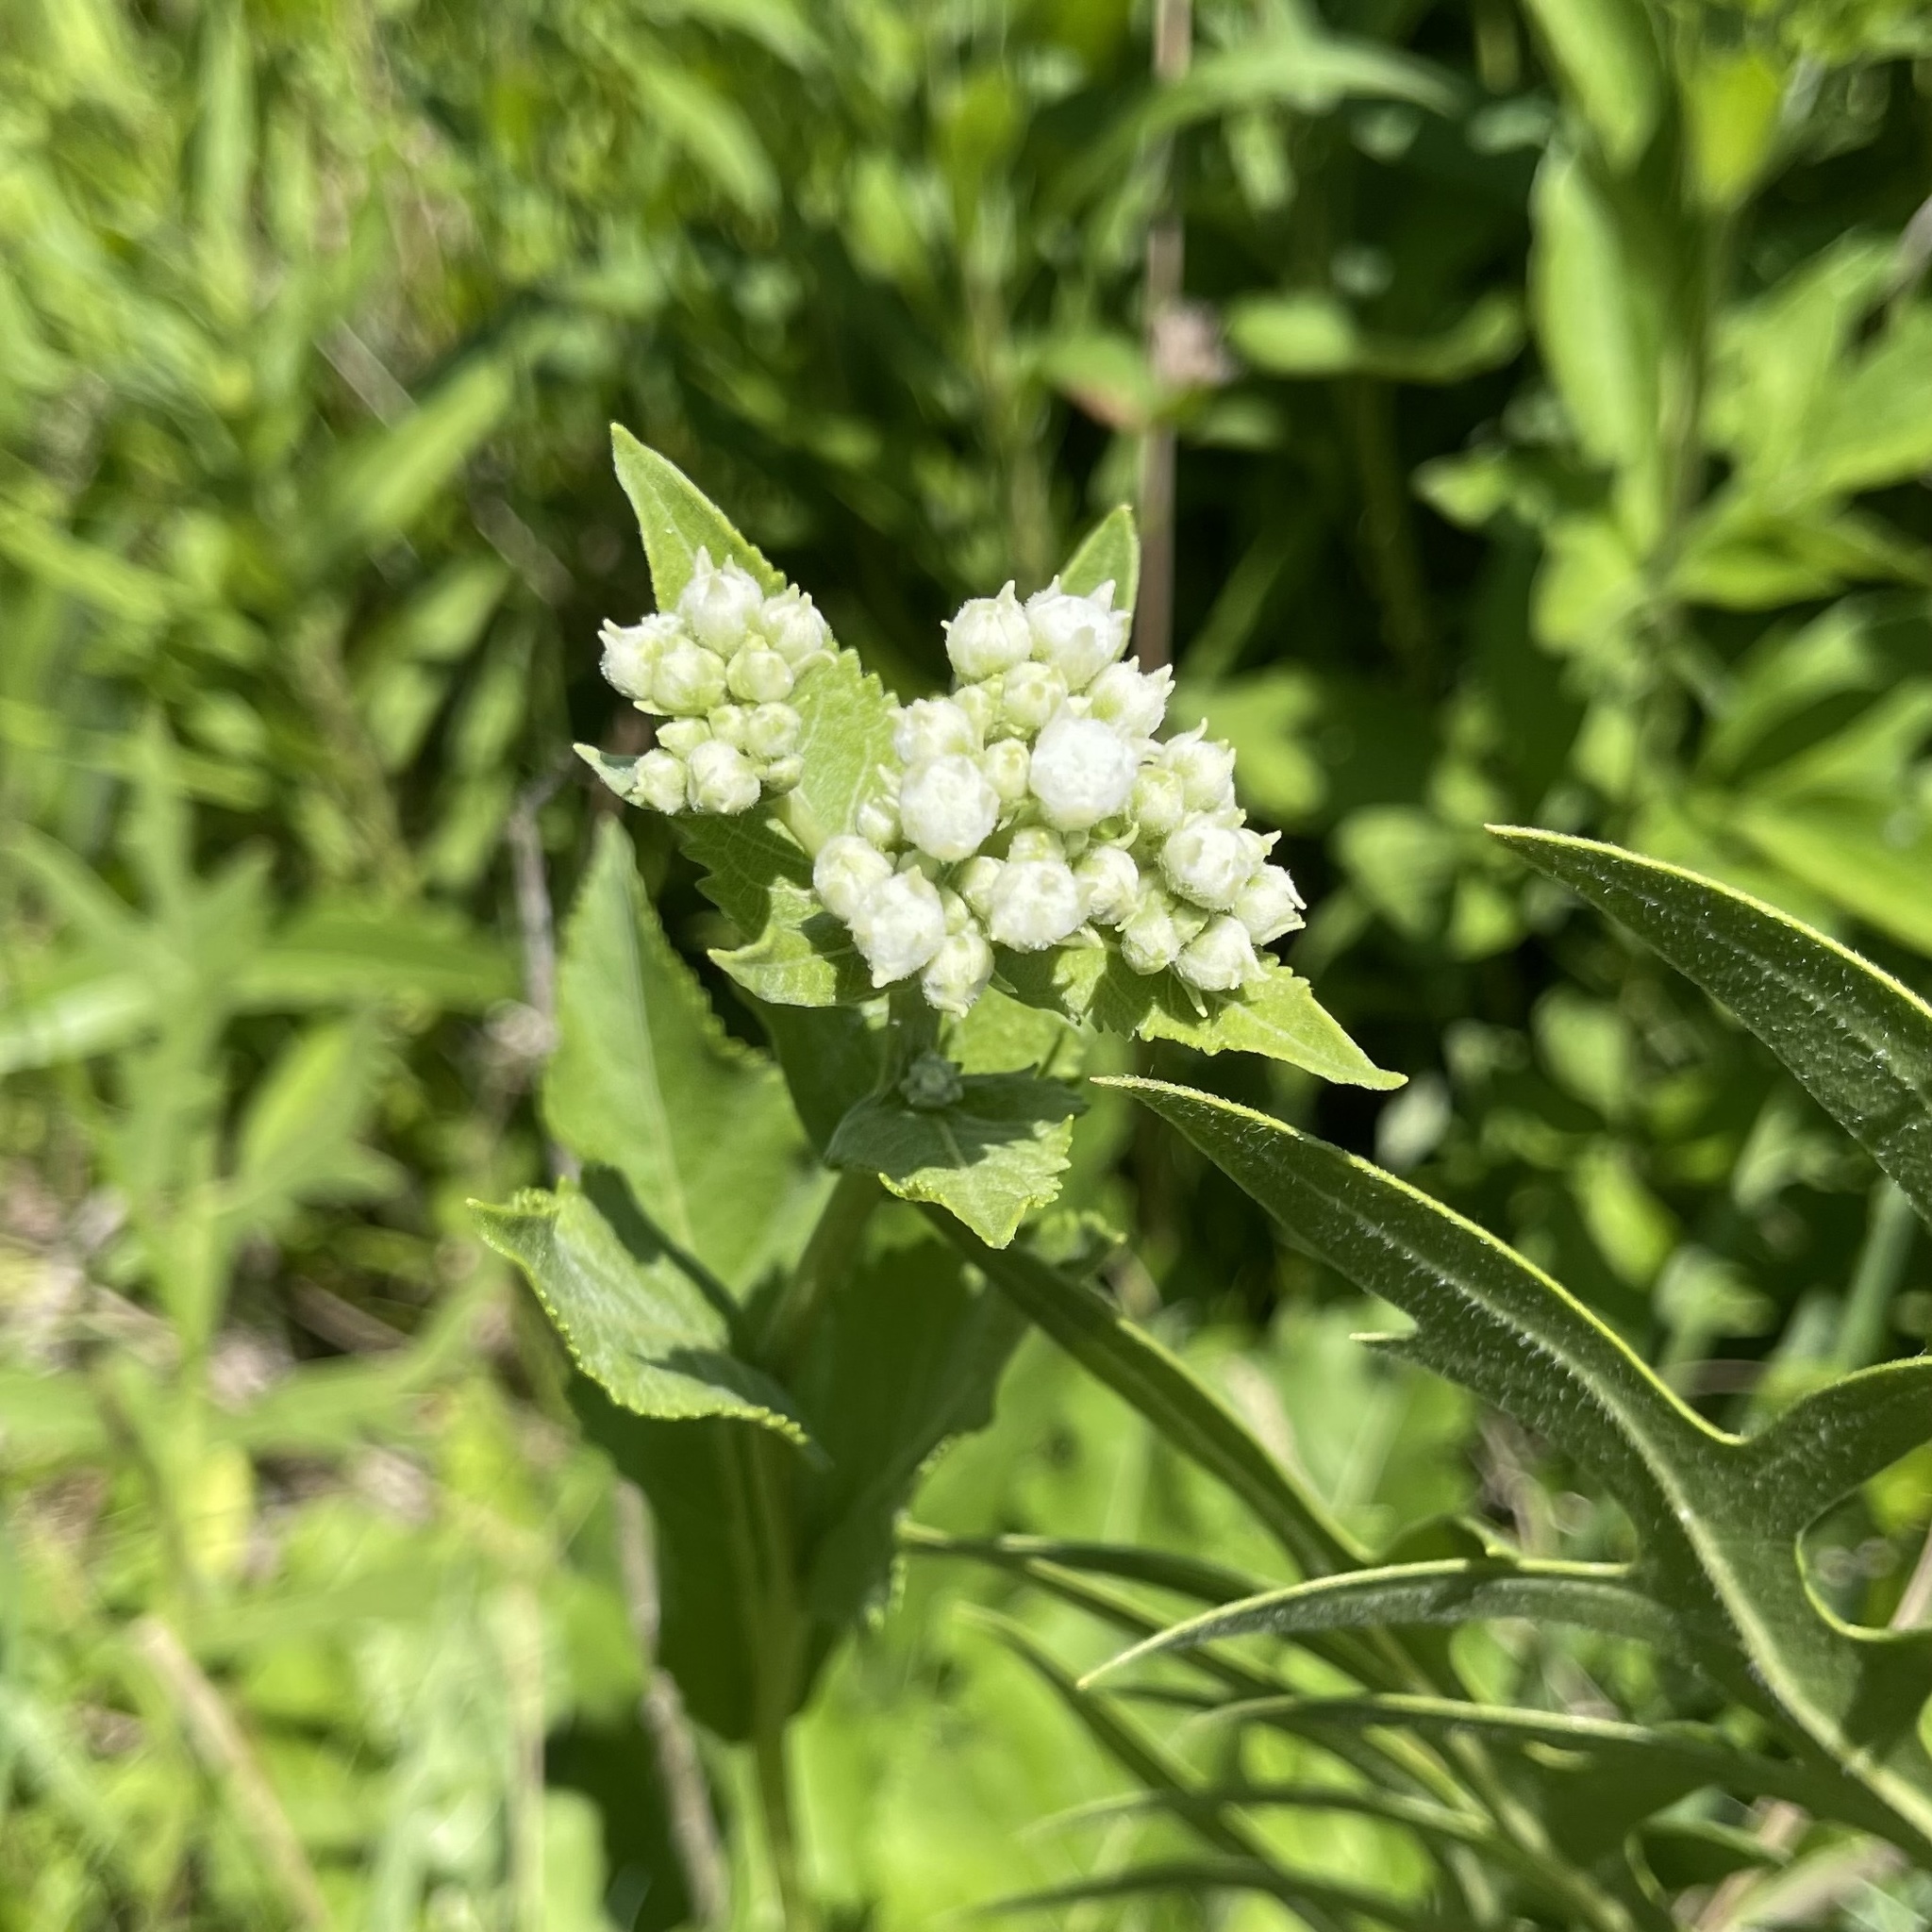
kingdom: Plantae
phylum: Tracheophyta
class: Magnoliopsida
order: Asterales
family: Asteraceae
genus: Parthenium
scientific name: Parthenium integrifolium
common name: American feverfew
